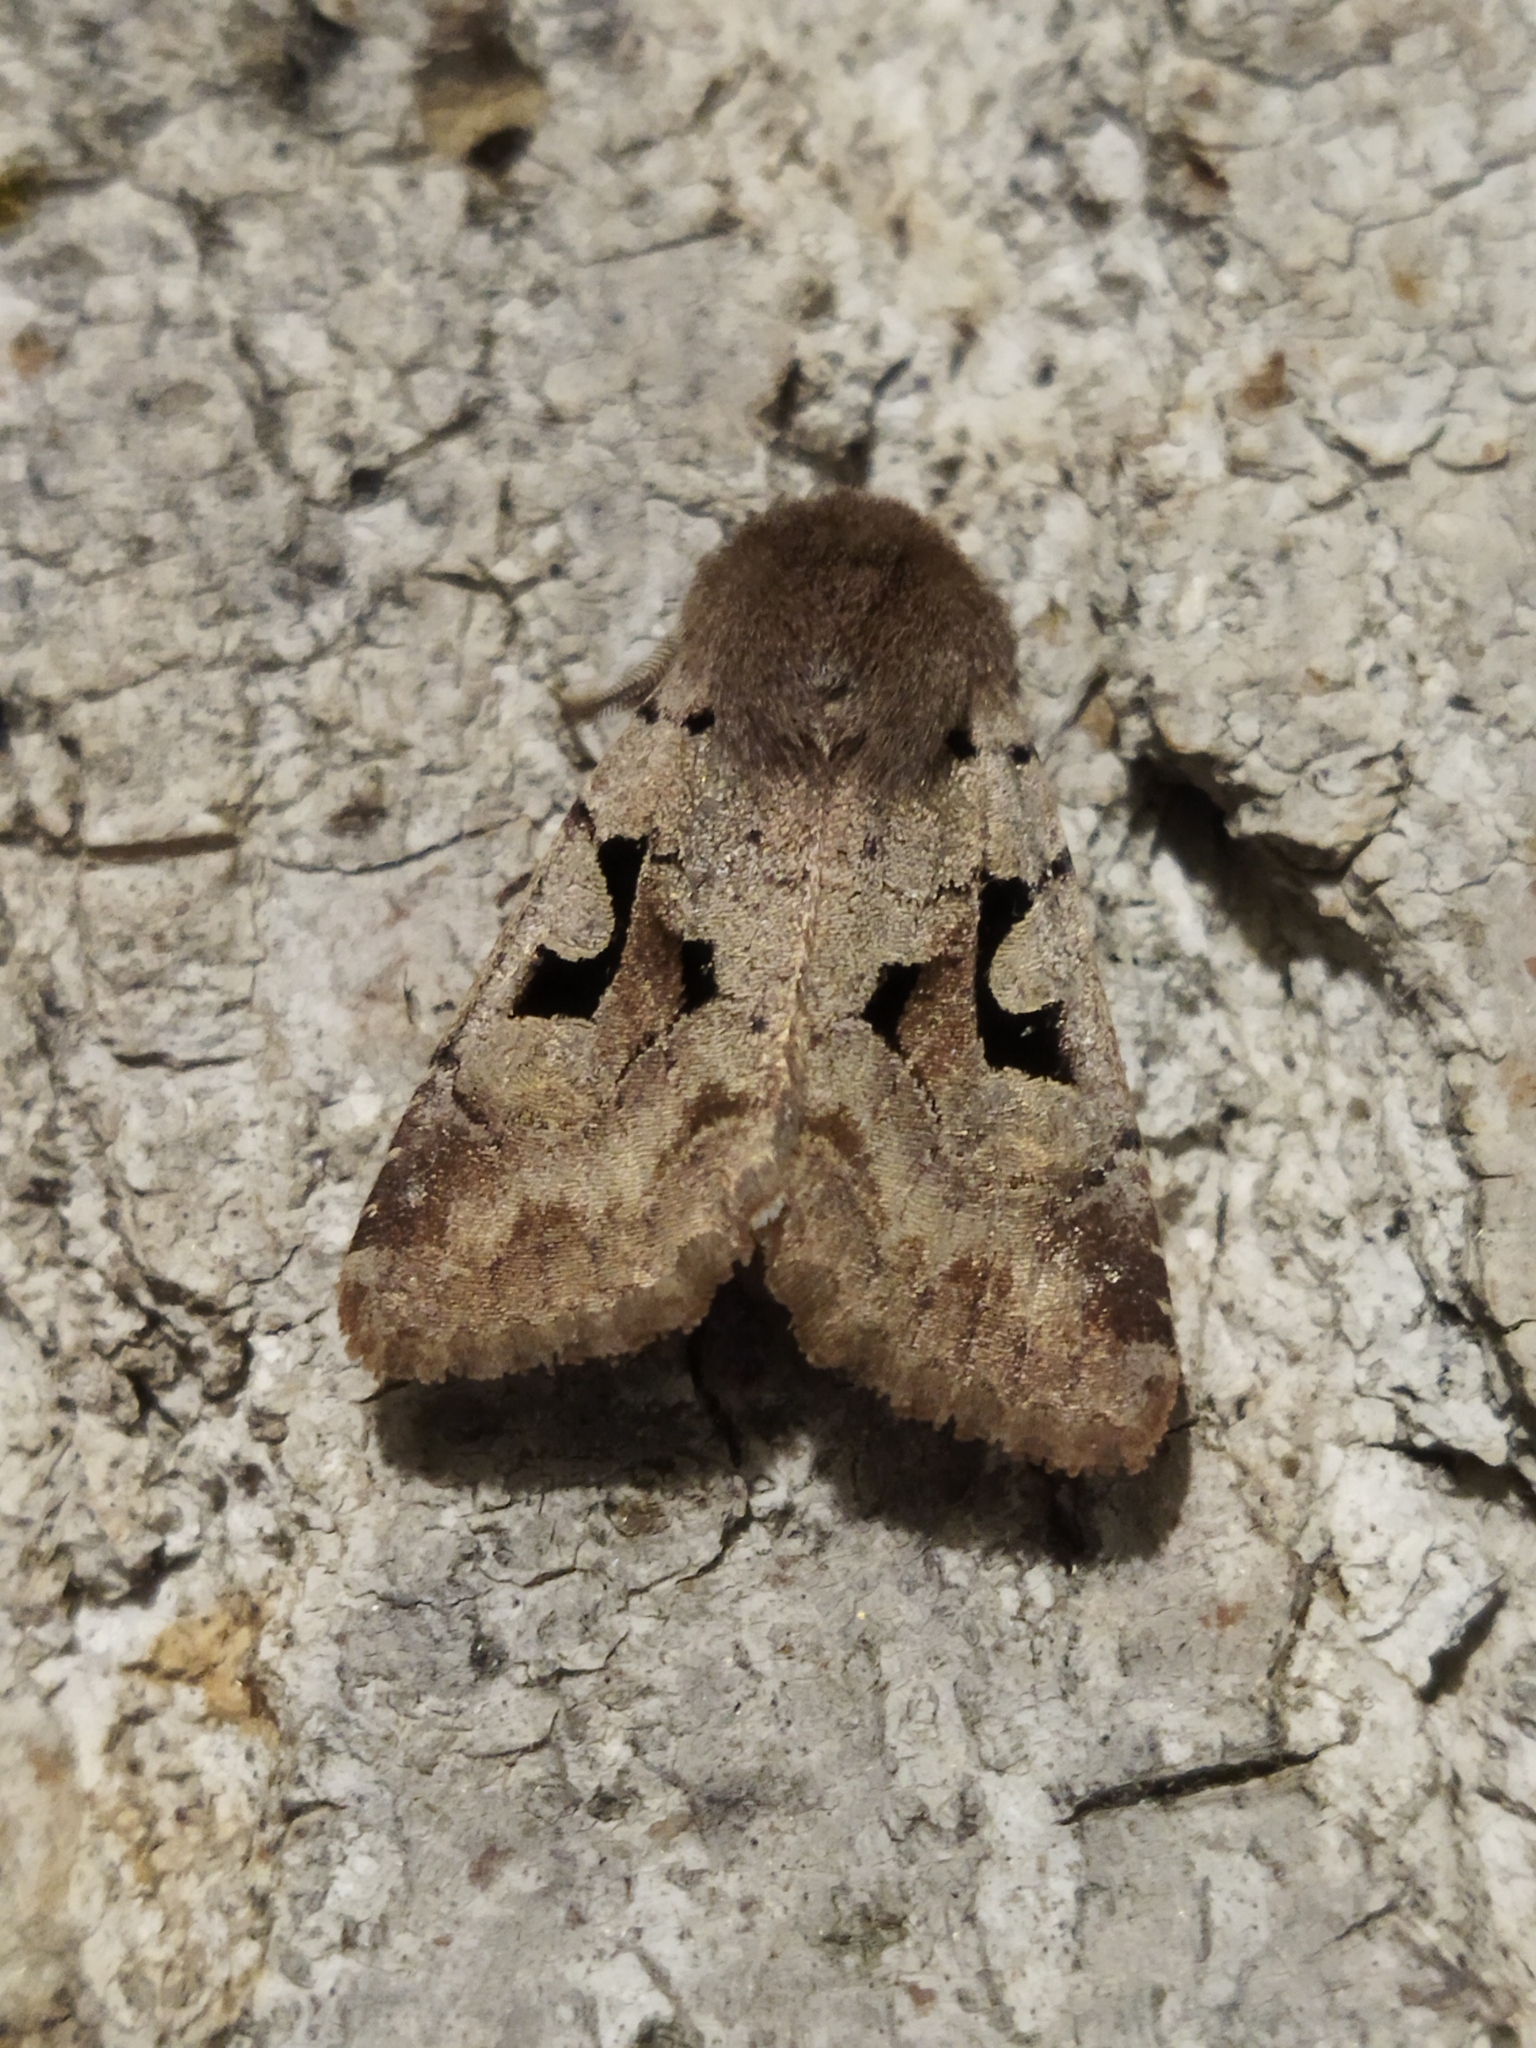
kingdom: Animalia
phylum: Arthropoda
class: Insecta
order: Lepidoptera
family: Noctuidae
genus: Orthosia
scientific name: Orthosia gothica
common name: Hebrew character
